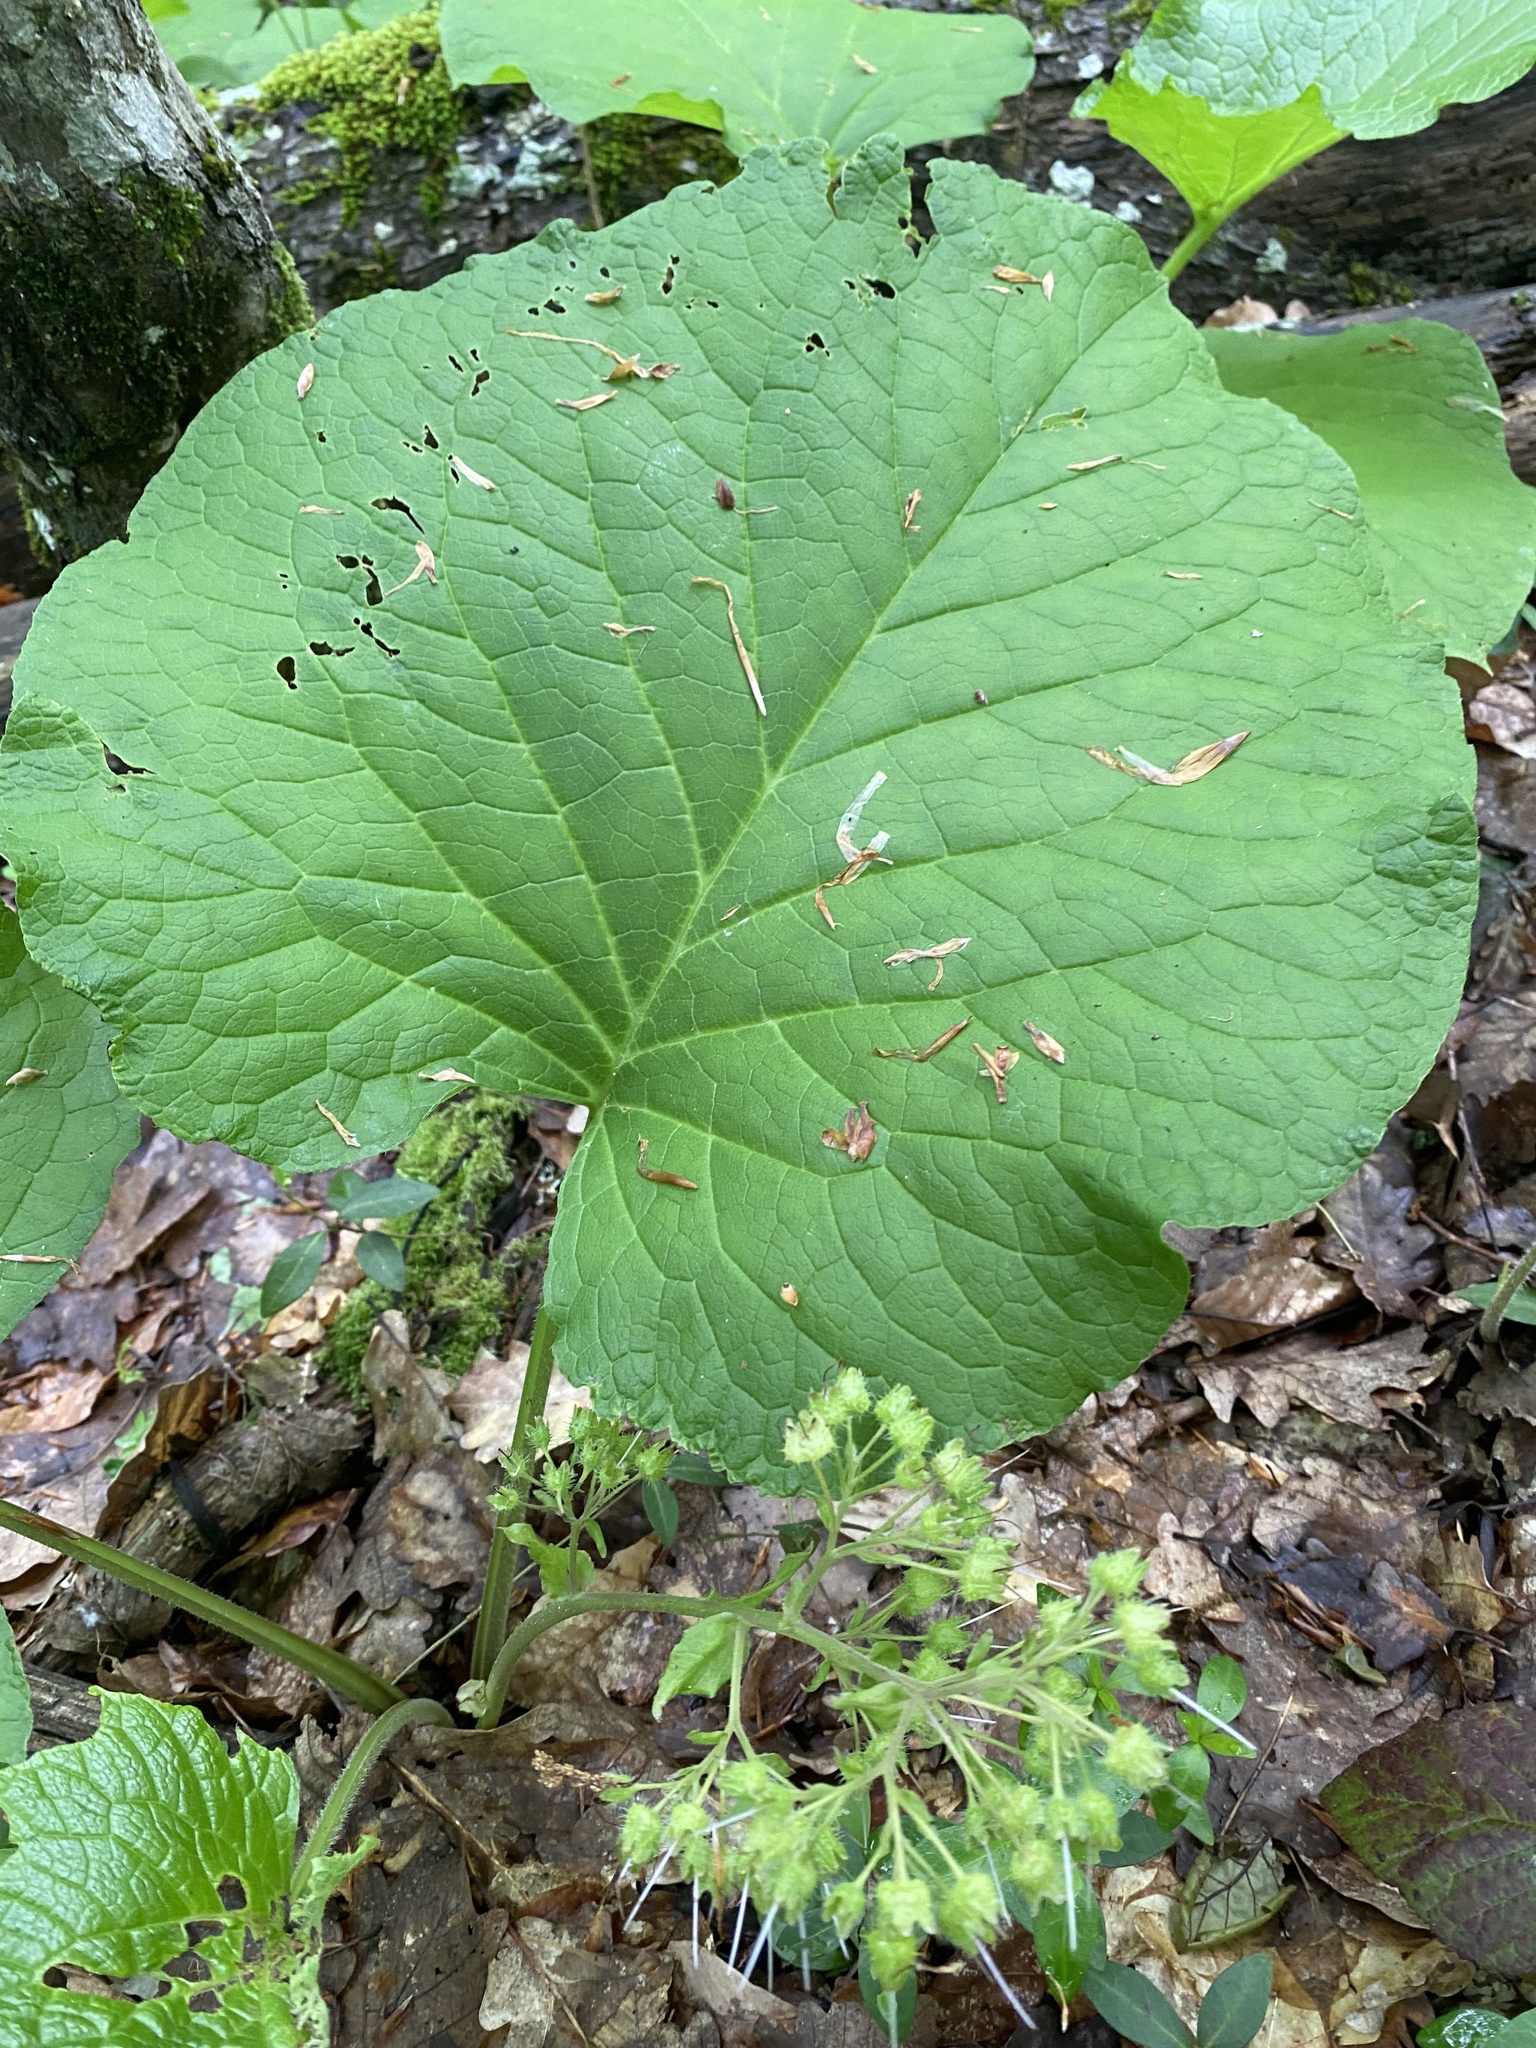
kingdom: Plantae
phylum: Tracheophyta
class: Magnoliopsida
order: Boraginales
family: Boraginaceae
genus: Trachystemon
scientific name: Trachystemon orientale
